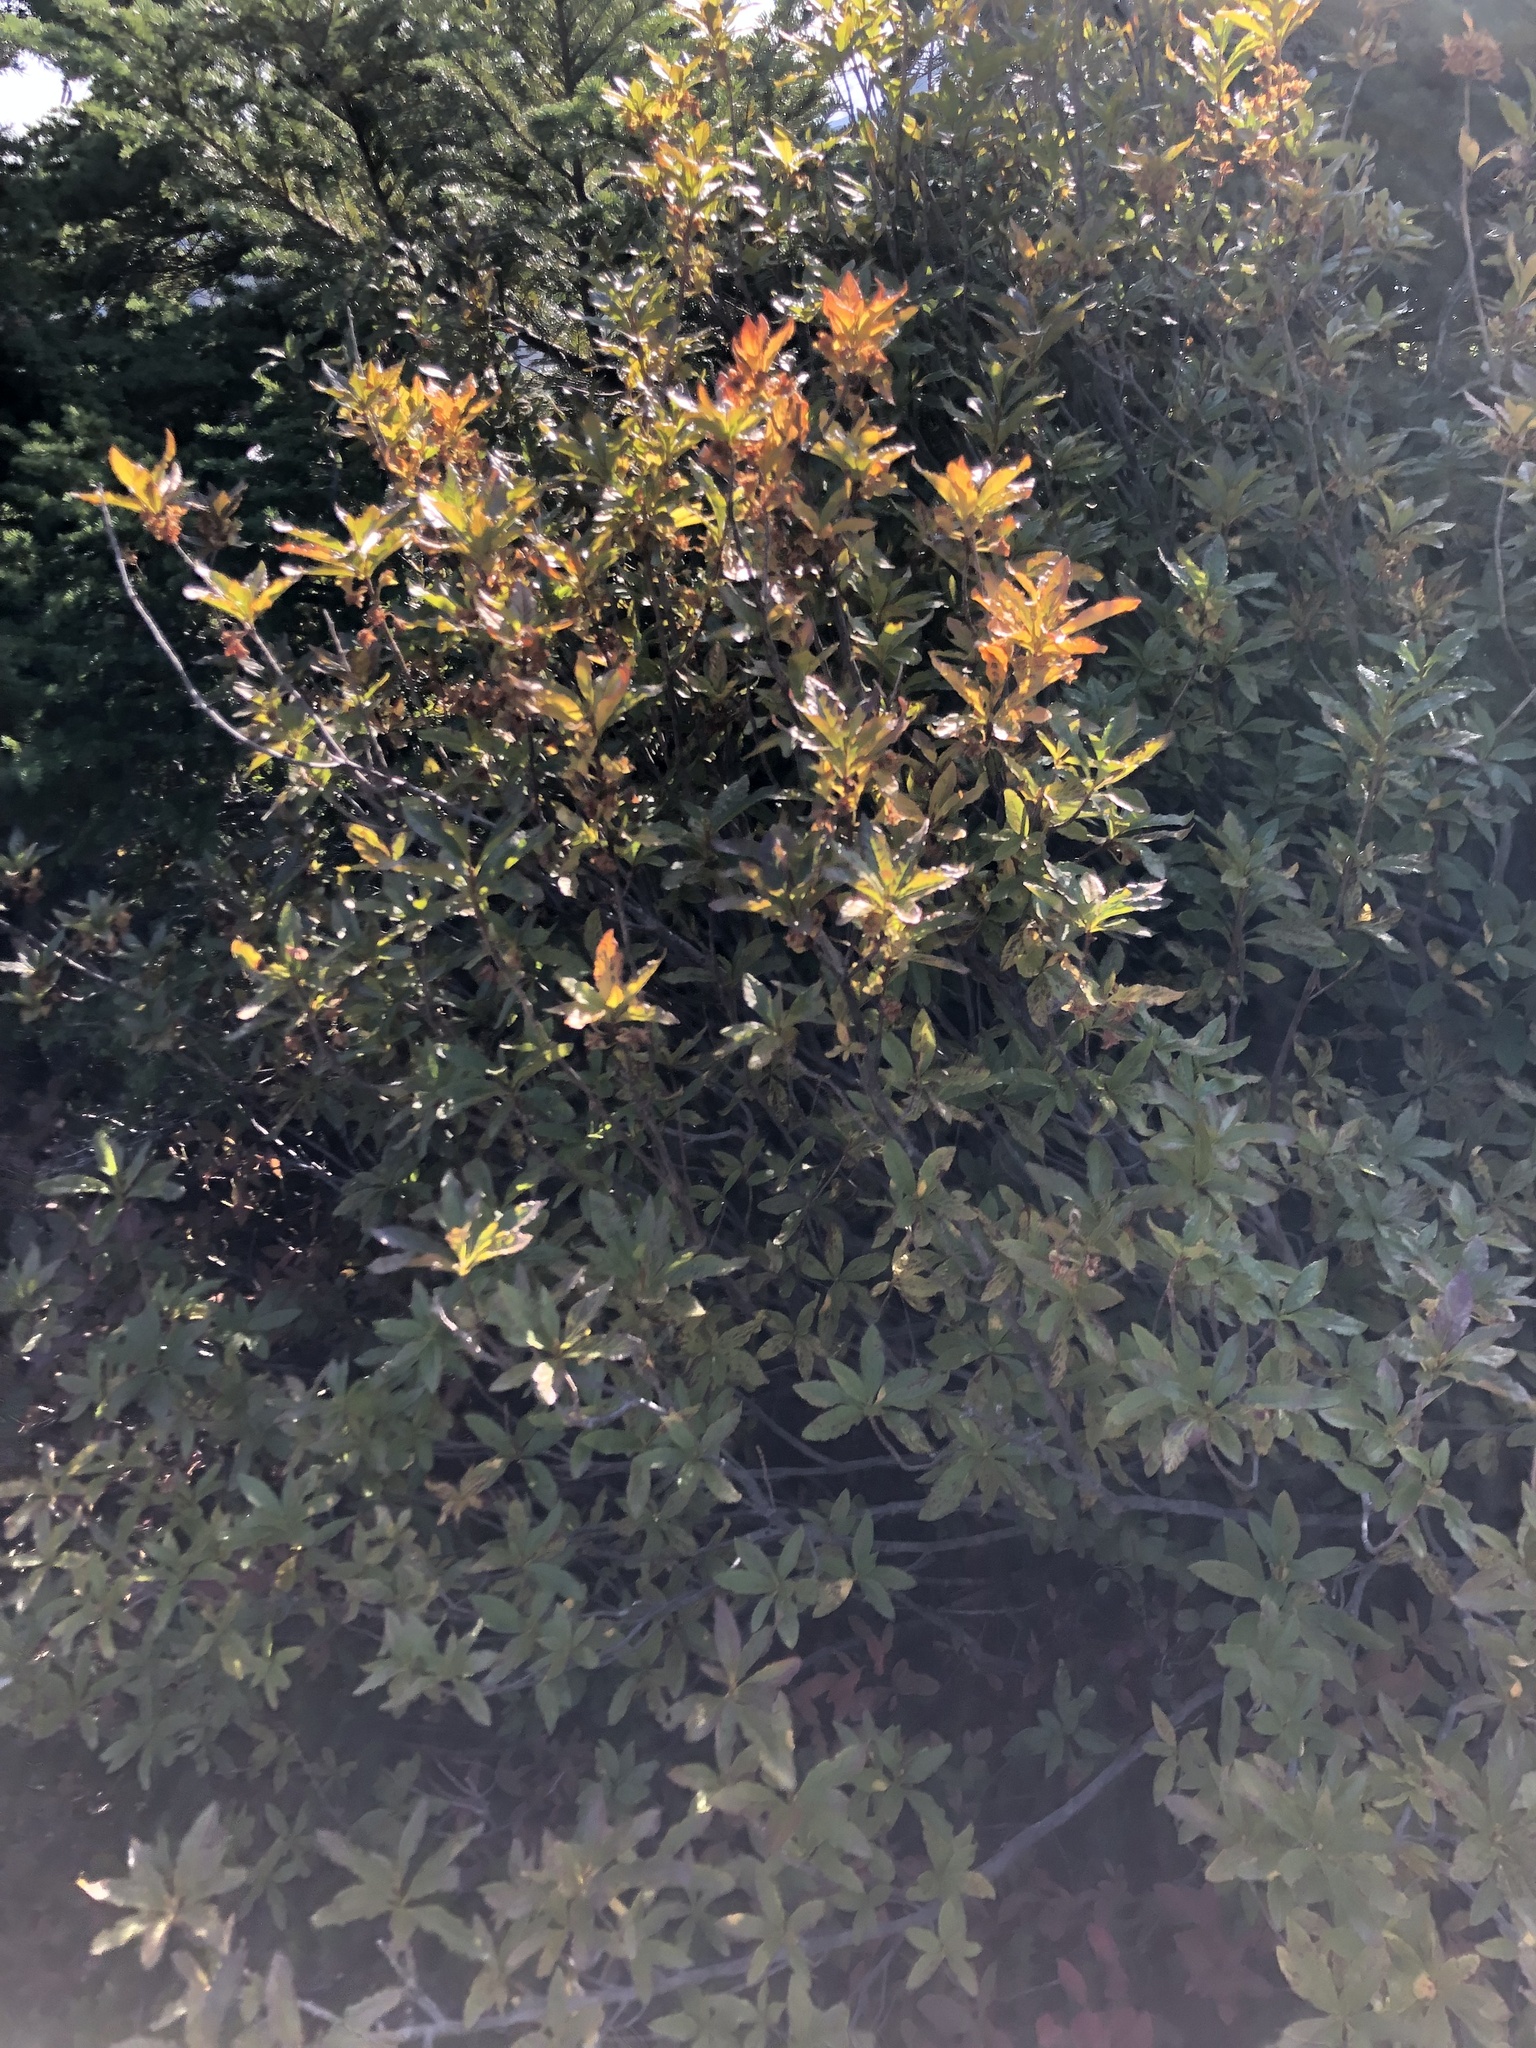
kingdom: Plantae
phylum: Tracheophyta
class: Magnoliopsida
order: Ericales
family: Ericaceae
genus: Rhododendron
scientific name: Rhododendron albiflorum
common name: White rhododendron
